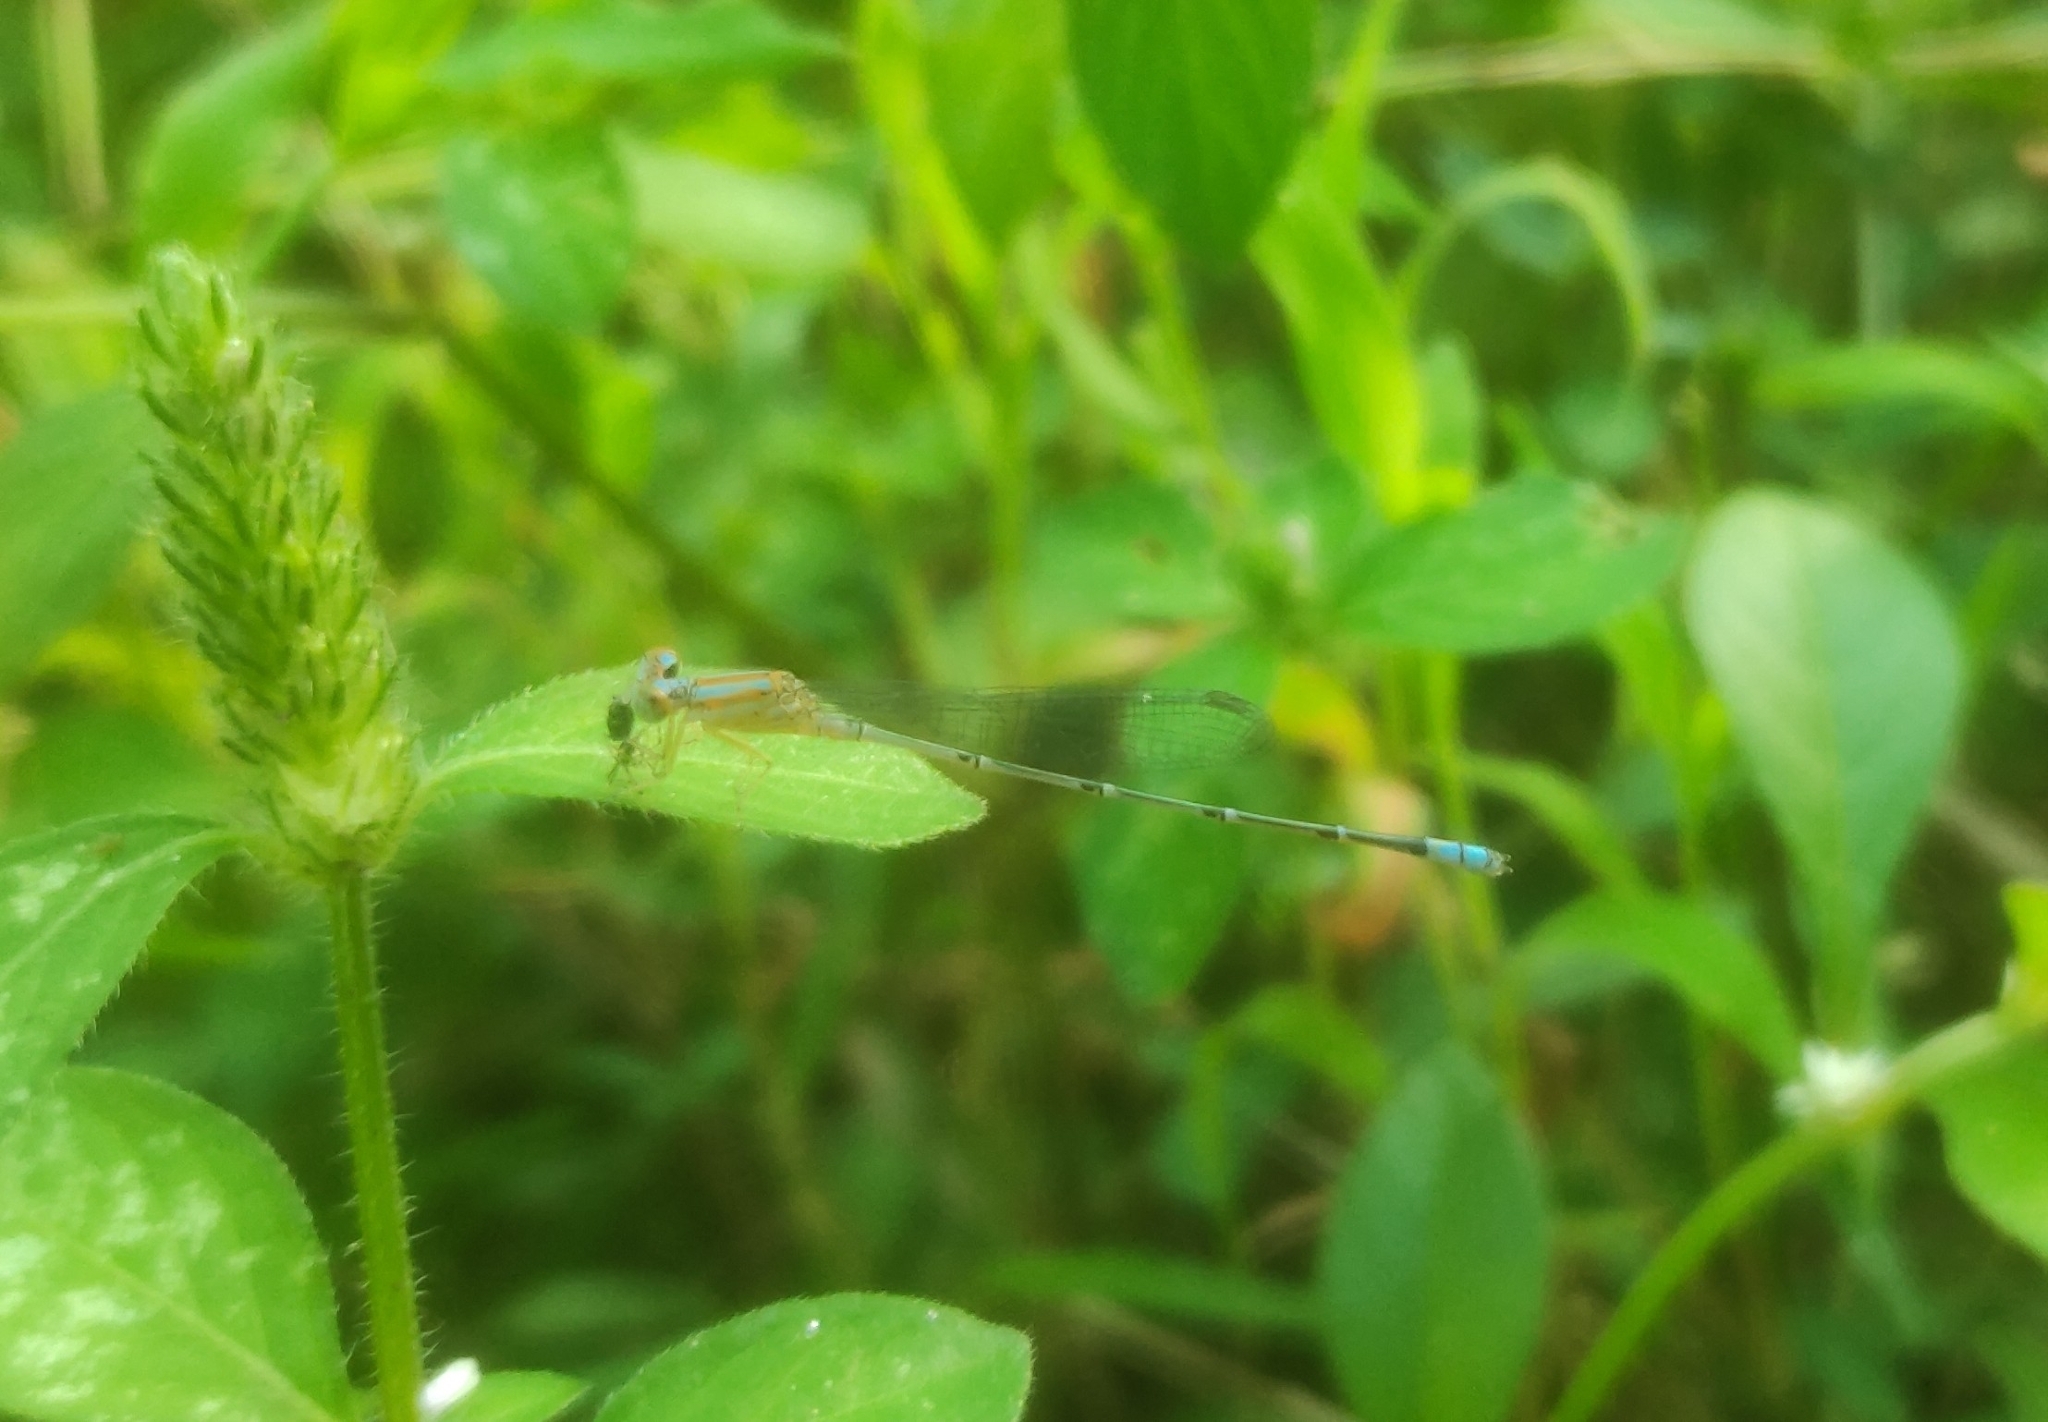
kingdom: Animalia
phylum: Arthropoda
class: Insecta
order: Odonata
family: Coenagrionidae
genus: Pseudagrion
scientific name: Pseudagrion microcephalum
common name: Blue riverdamsel
